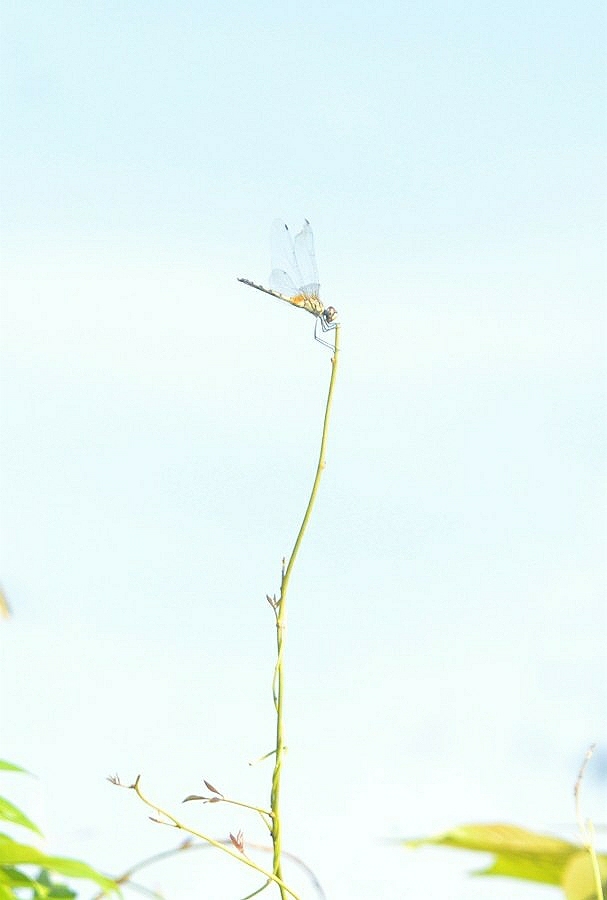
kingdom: Animalia
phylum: Arthropoda
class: Insecta
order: Odonata
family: Libellulidae
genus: Trithemis
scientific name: Trithemis pallidinervis
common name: Dancing dropwing
